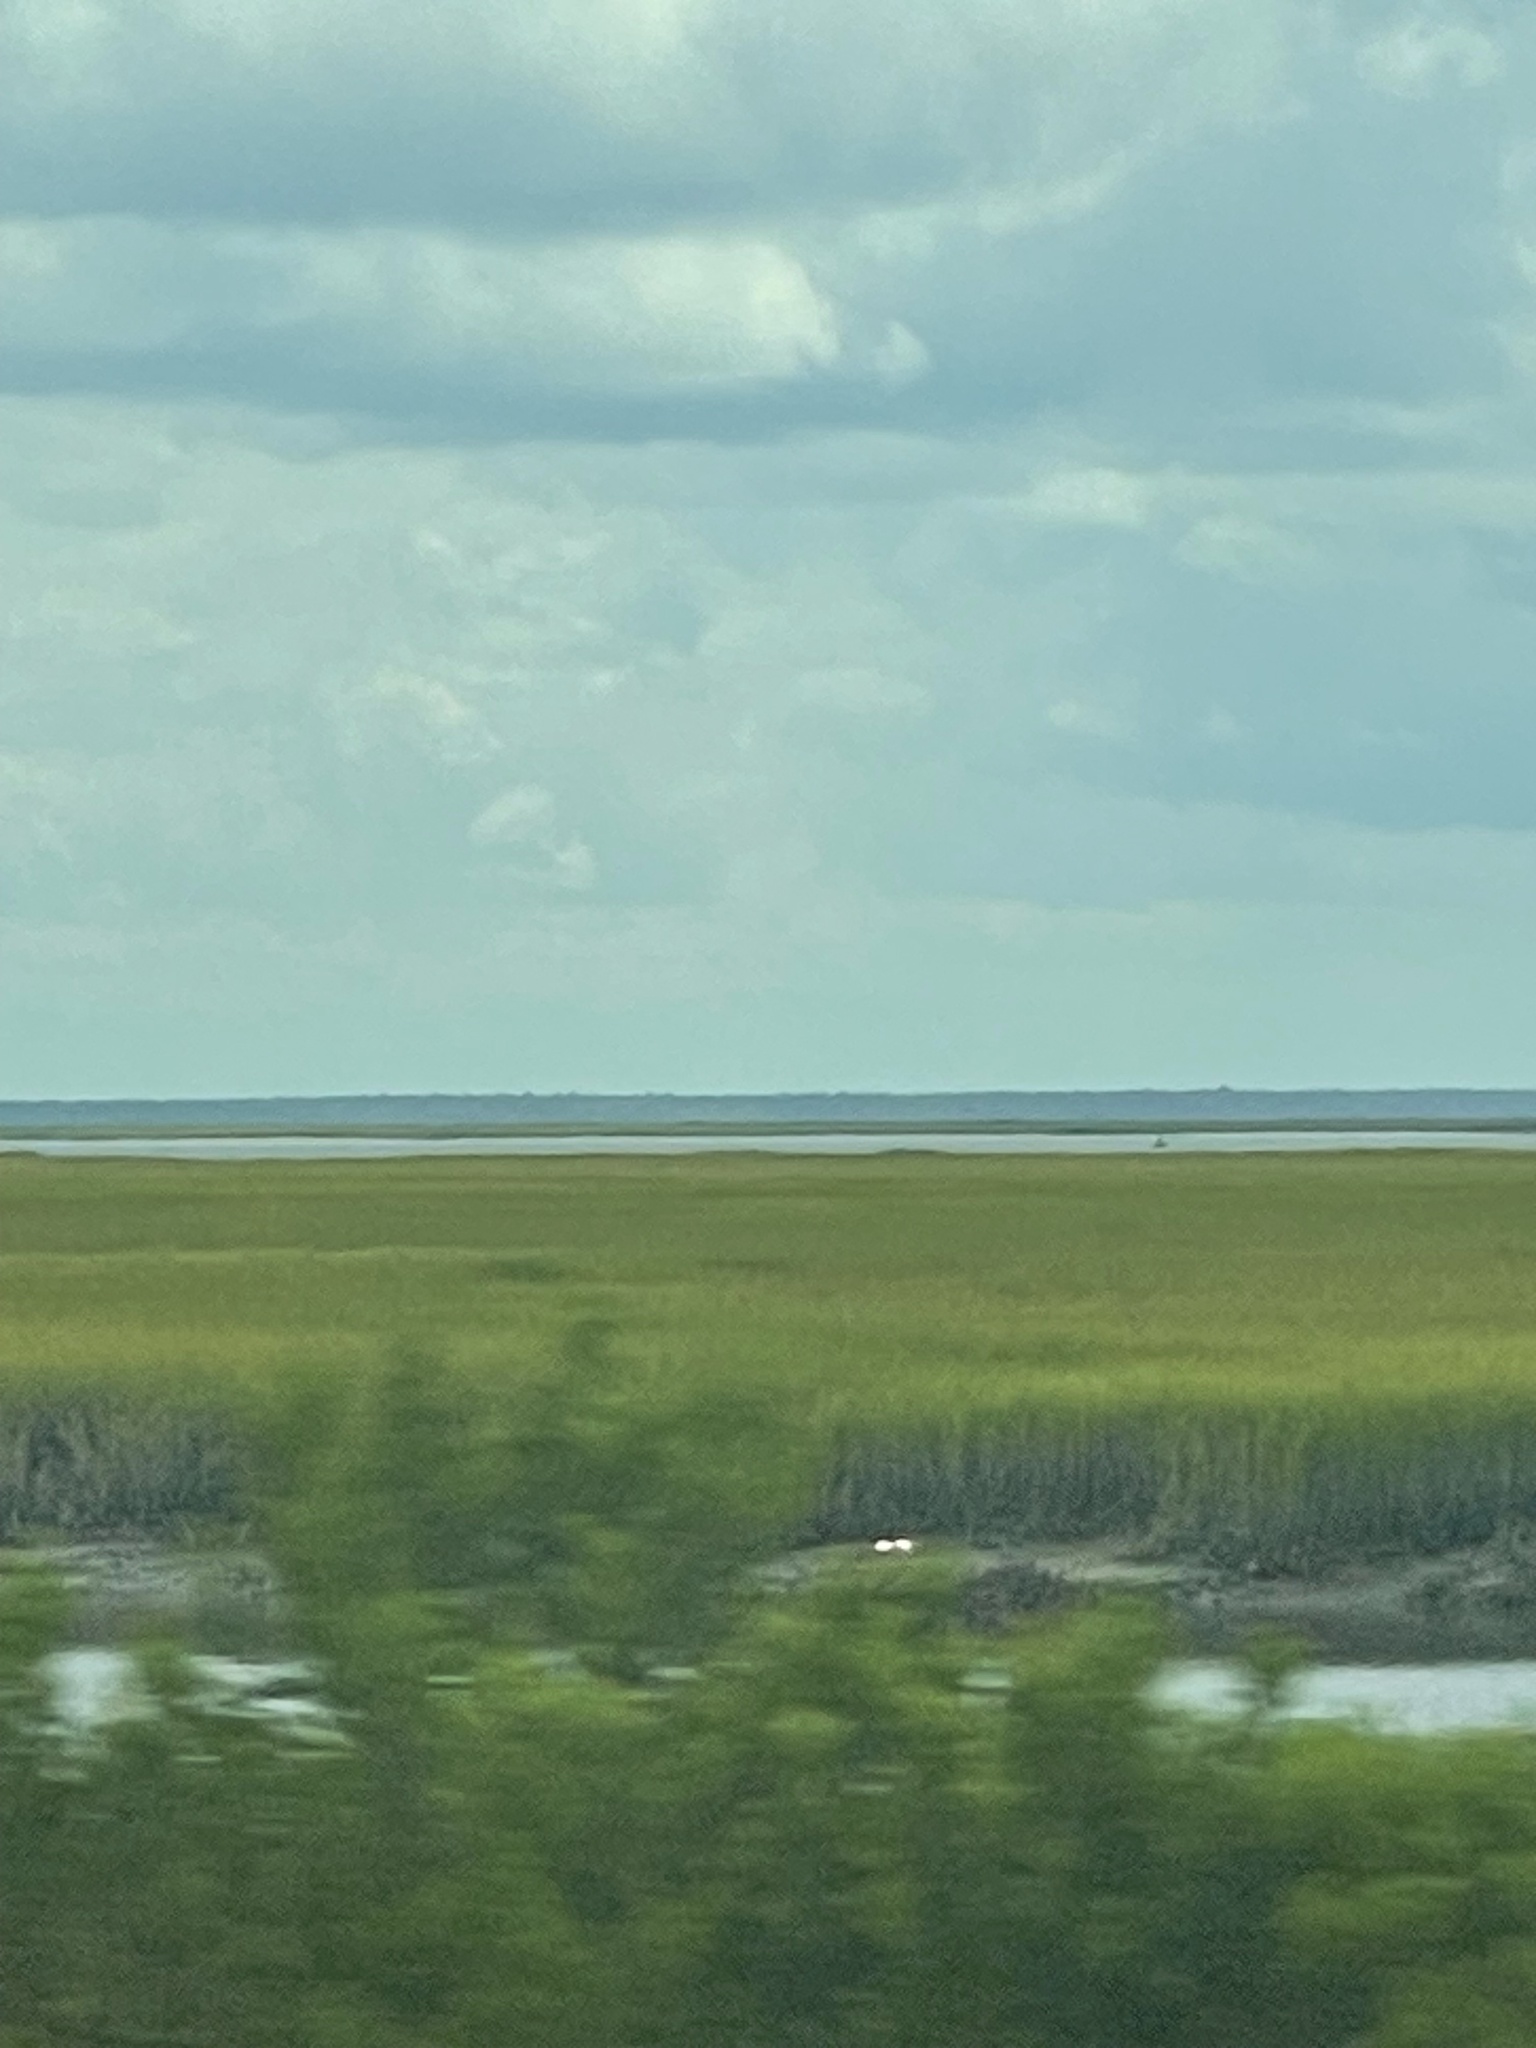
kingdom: Animalia
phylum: Chordata
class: Aves
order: Pelecaniformes
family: Threskiornithidae
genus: Platalea
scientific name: Platalea ajaja
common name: Roseate spoonbill
